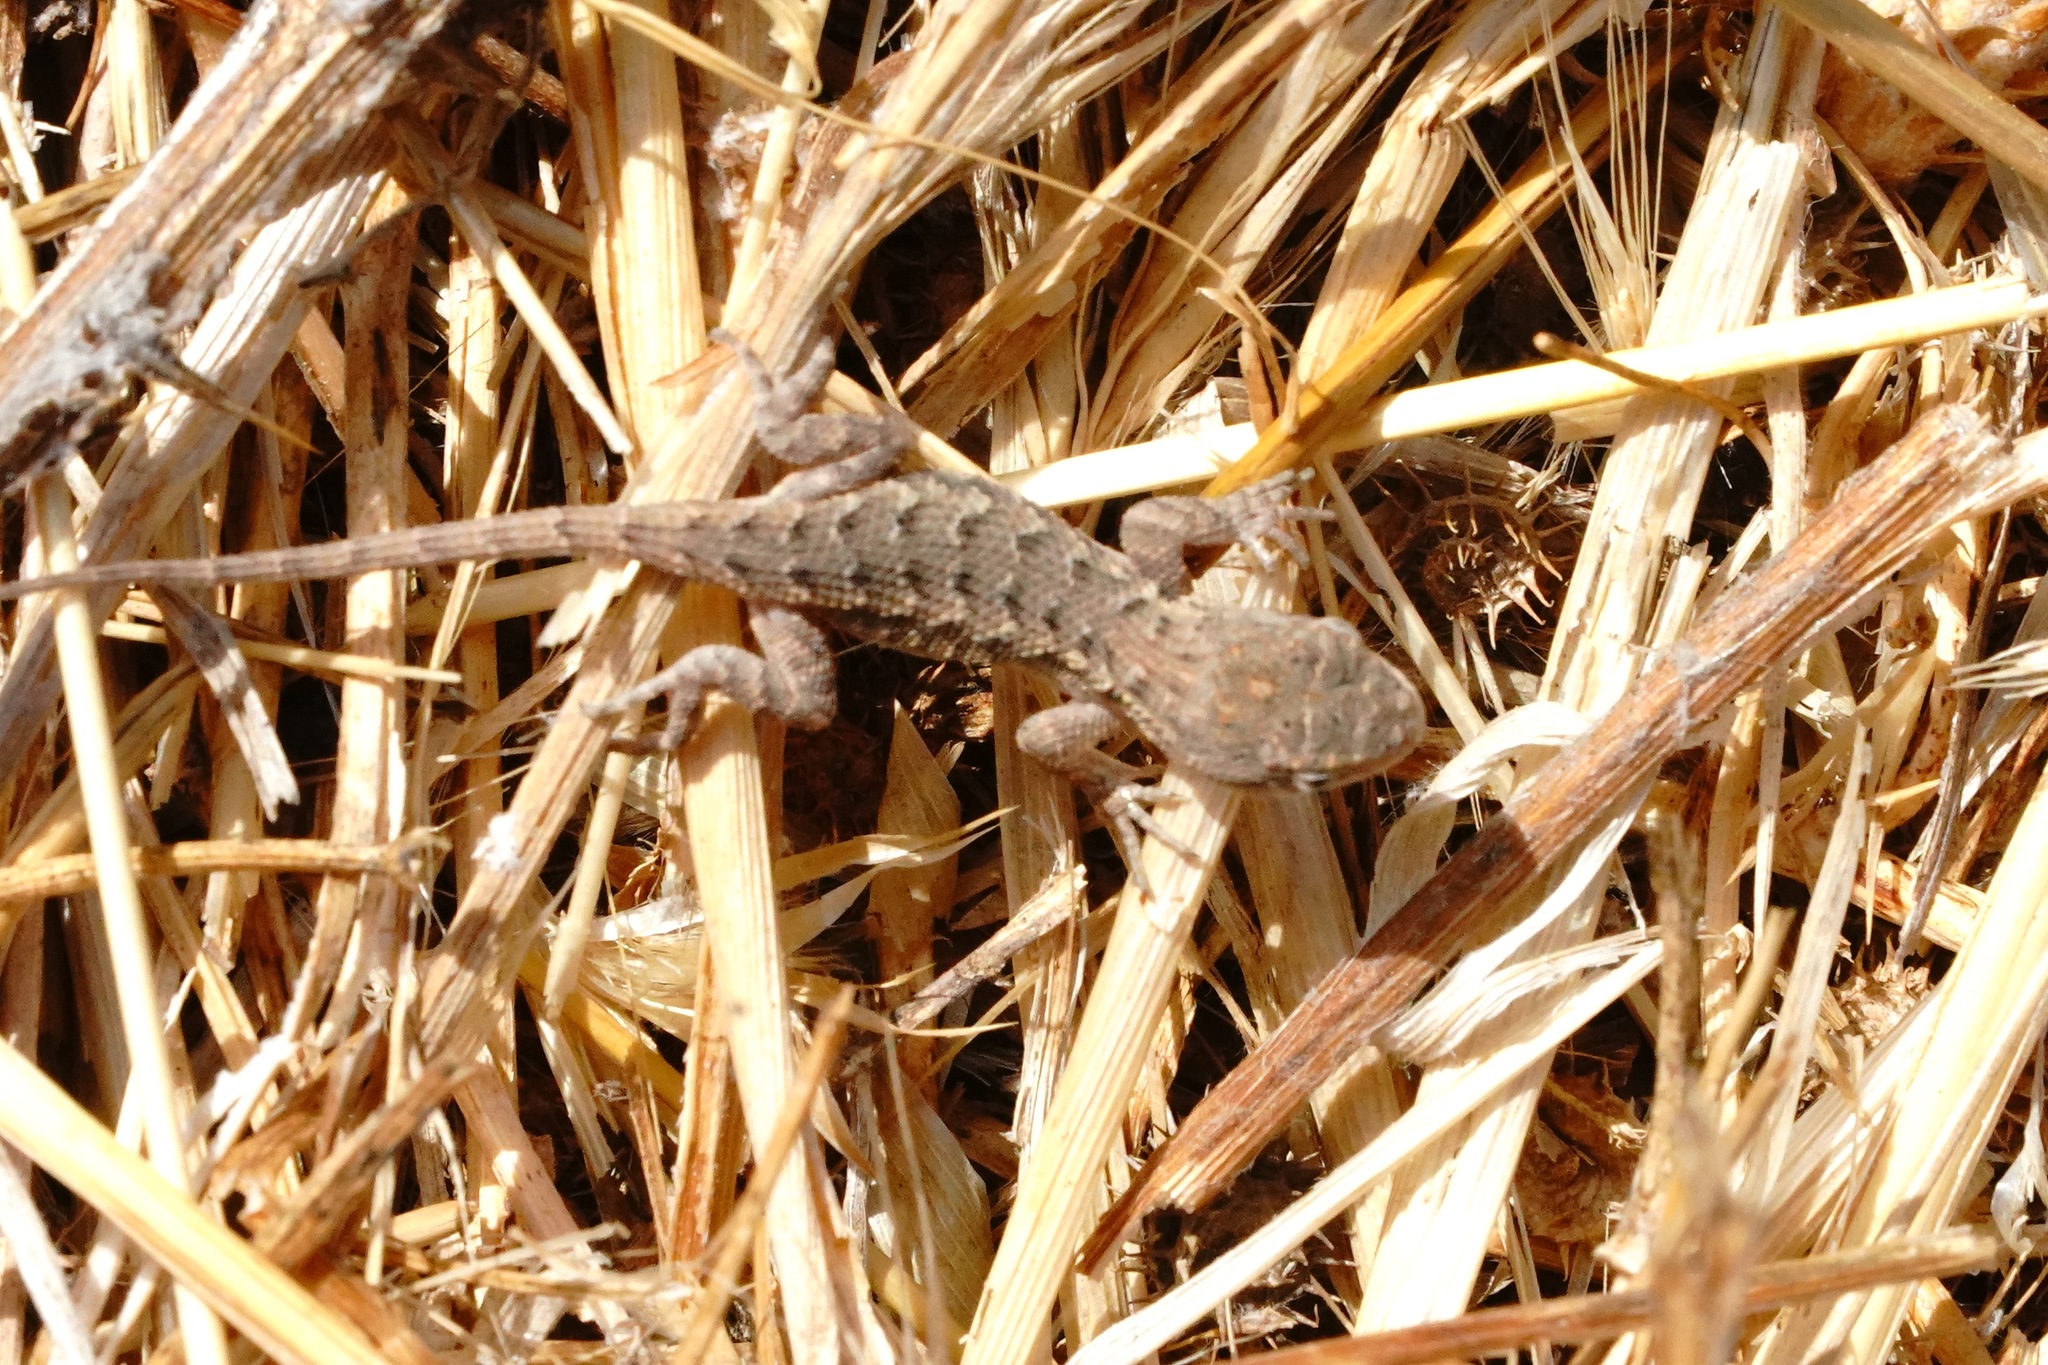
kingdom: Animalia
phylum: Chordata
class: Squamata
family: Phrynosomatidae
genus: Sceloporus
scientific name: Sceloporus occidentalis
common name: Western fence lizard
